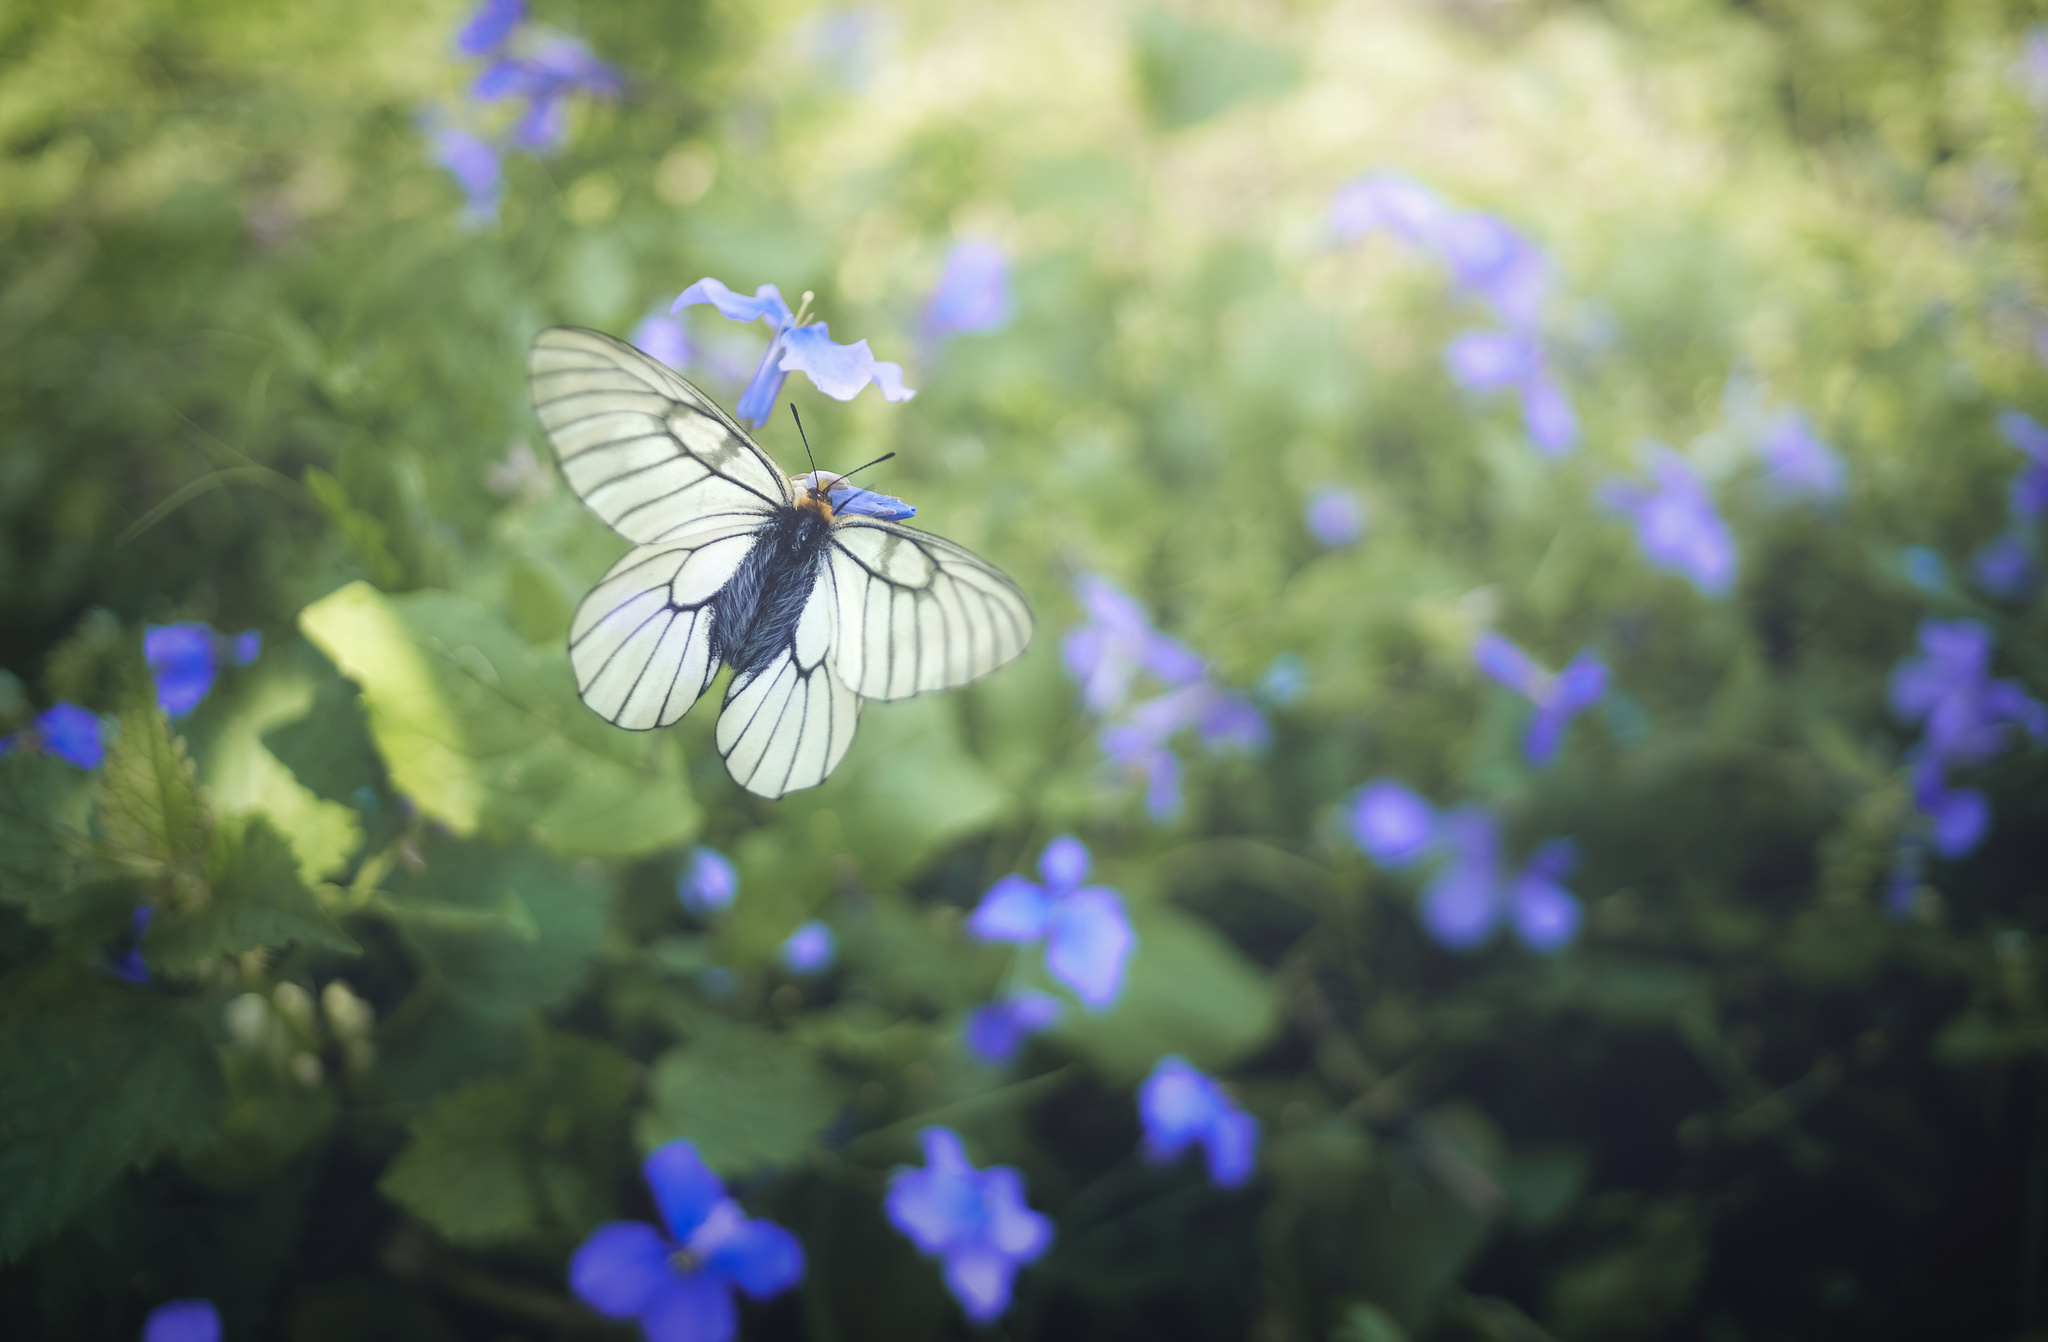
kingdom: Animalia
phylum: Arthropoda
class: Insecta
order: Lepidoptera
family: Papilionidae
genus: Parnassius
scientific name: Parnassius glacialis
